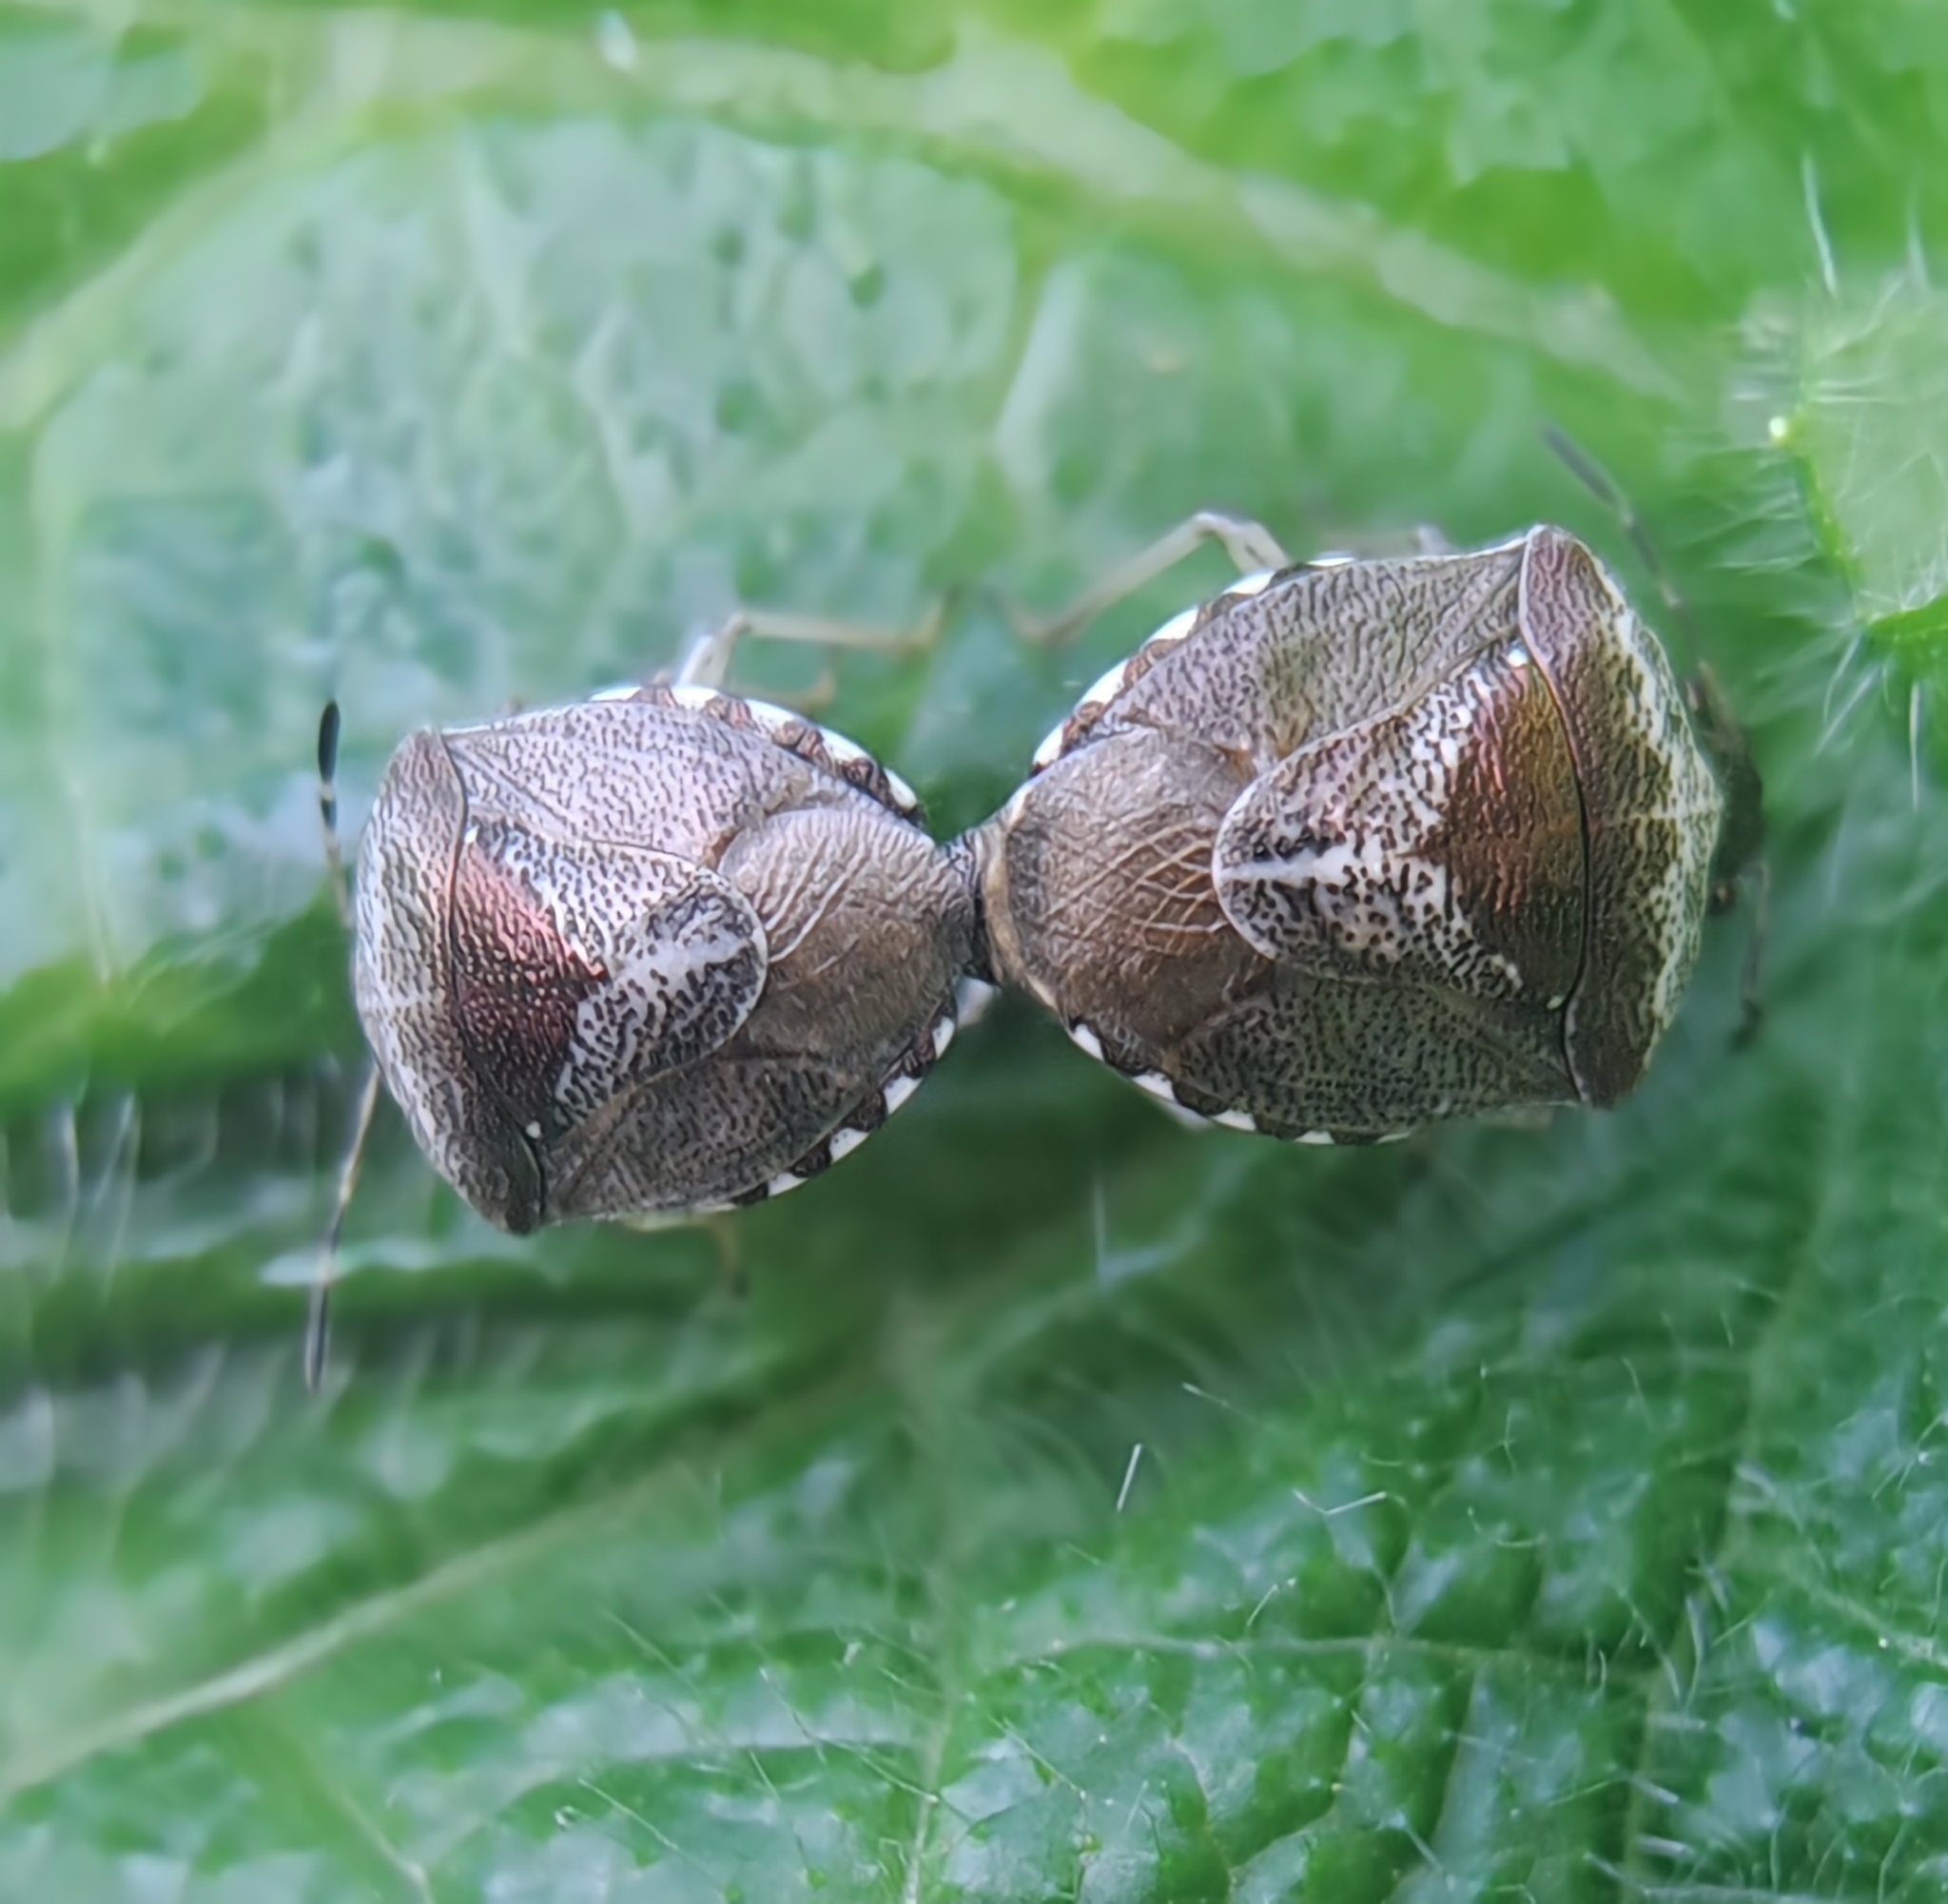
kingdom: Animalia
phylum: Arthropoda
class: Insecta
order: Hemiptera
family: Pentatomidae
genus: Eysarcoris
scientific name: Eysarcoris venustissimus
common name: Woundwort shieldbug
